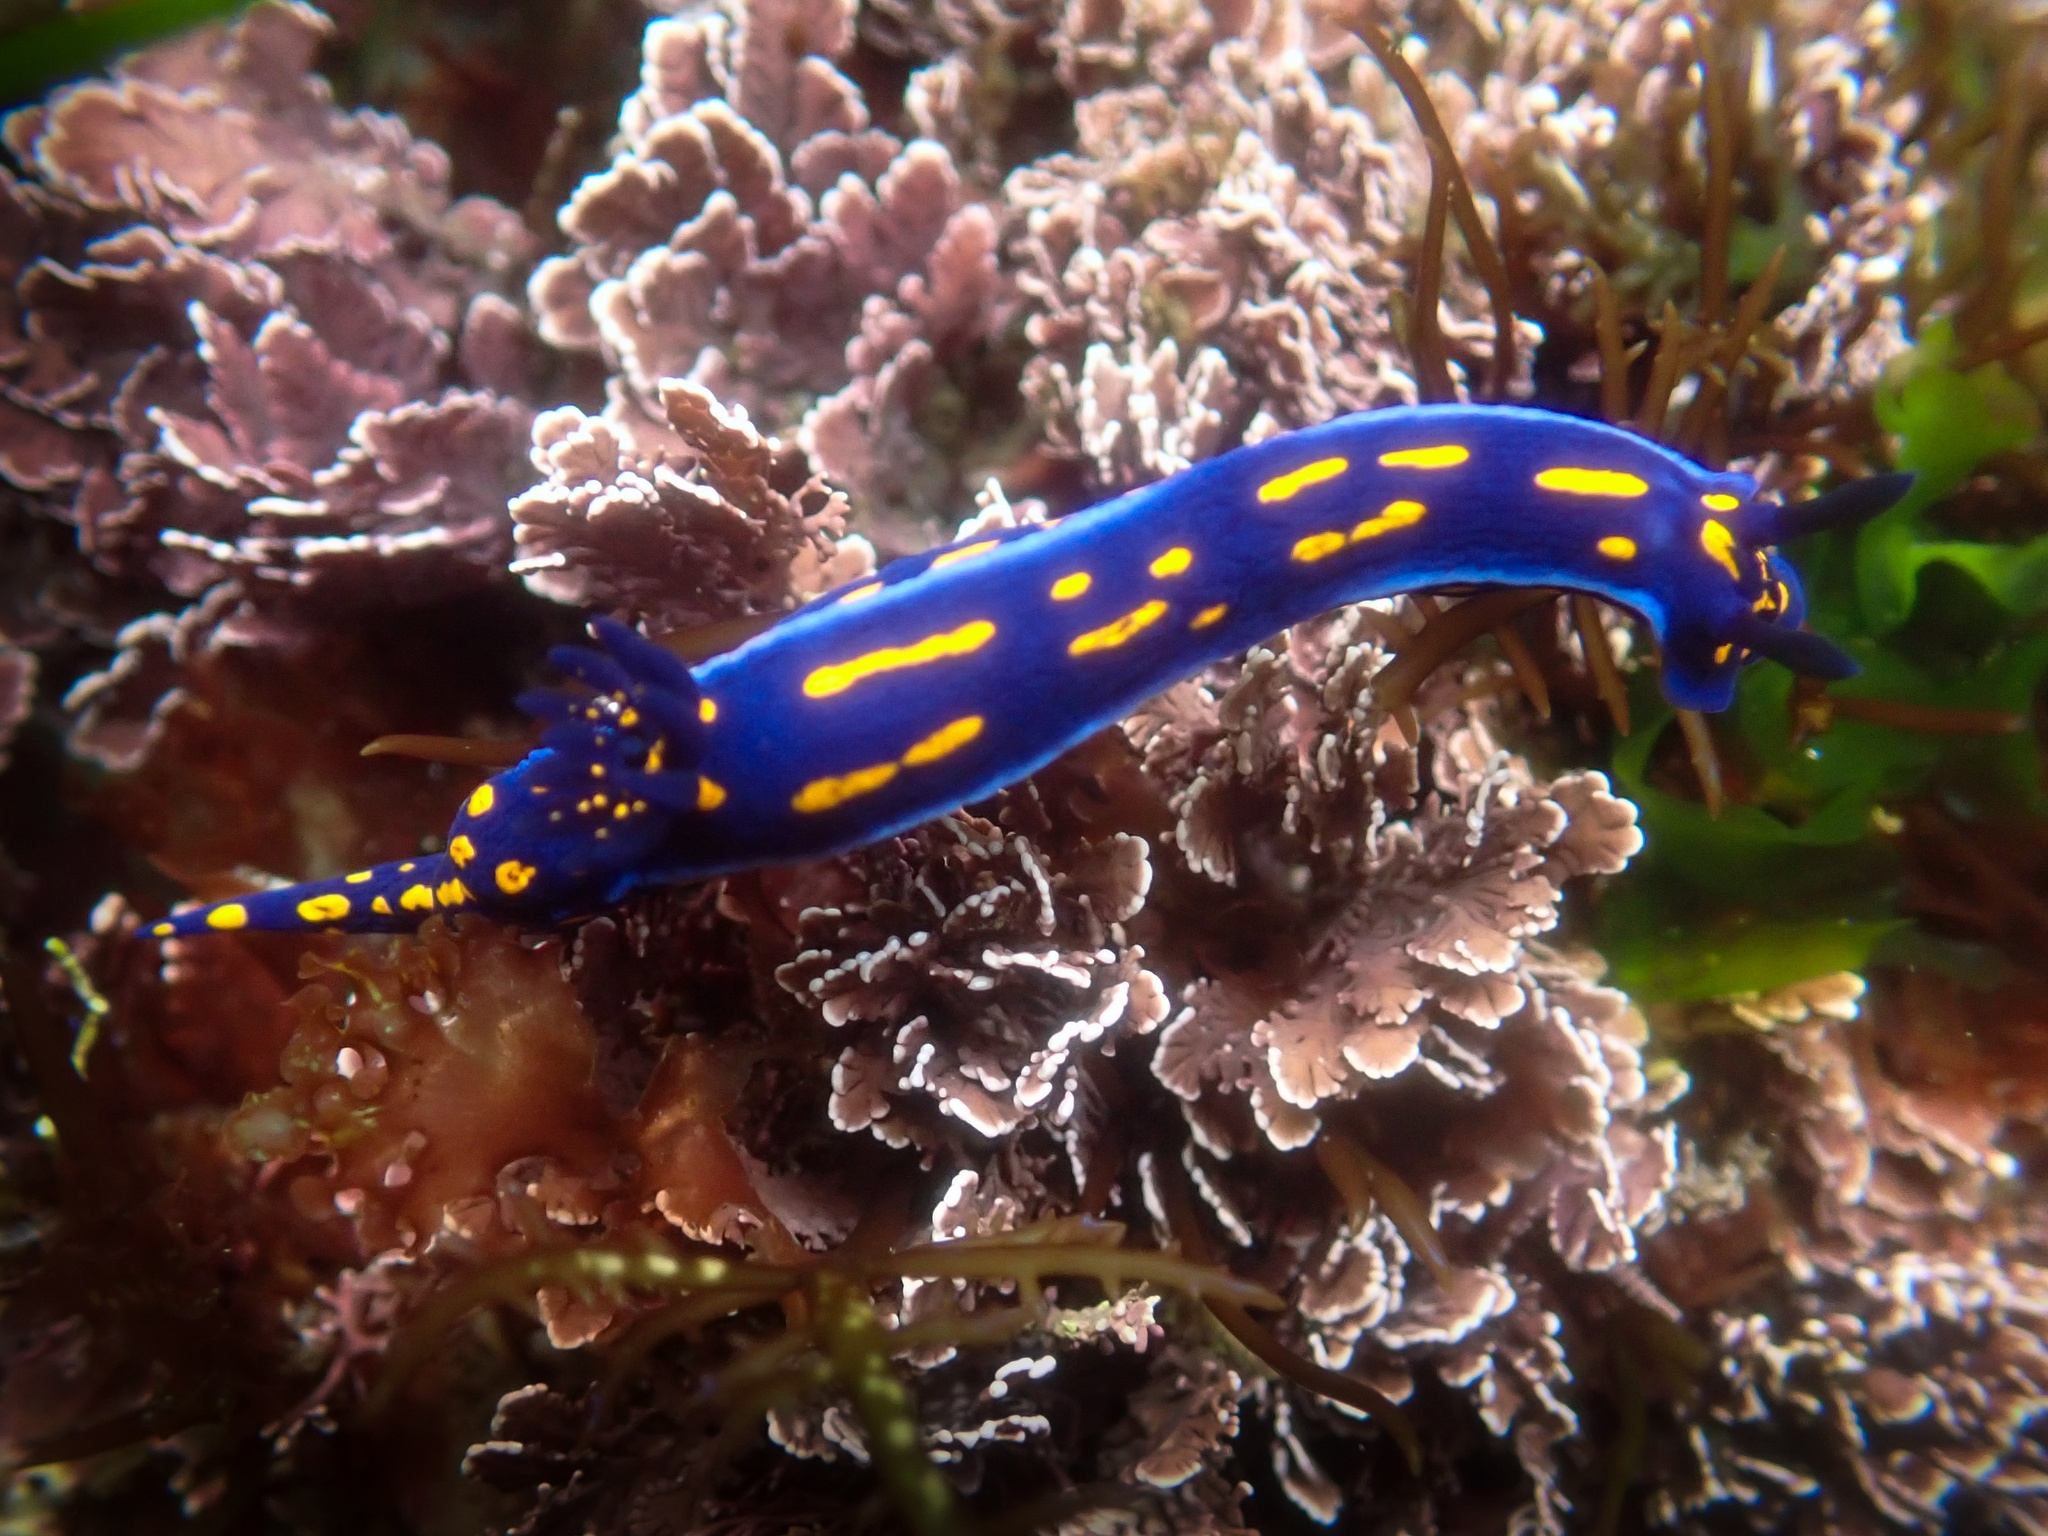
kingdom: Animalia
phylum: Mollusca
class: Gastropoda
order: Nudibranchia
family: Chromodorididae
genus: Felimare
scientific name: Felimare californiensis
